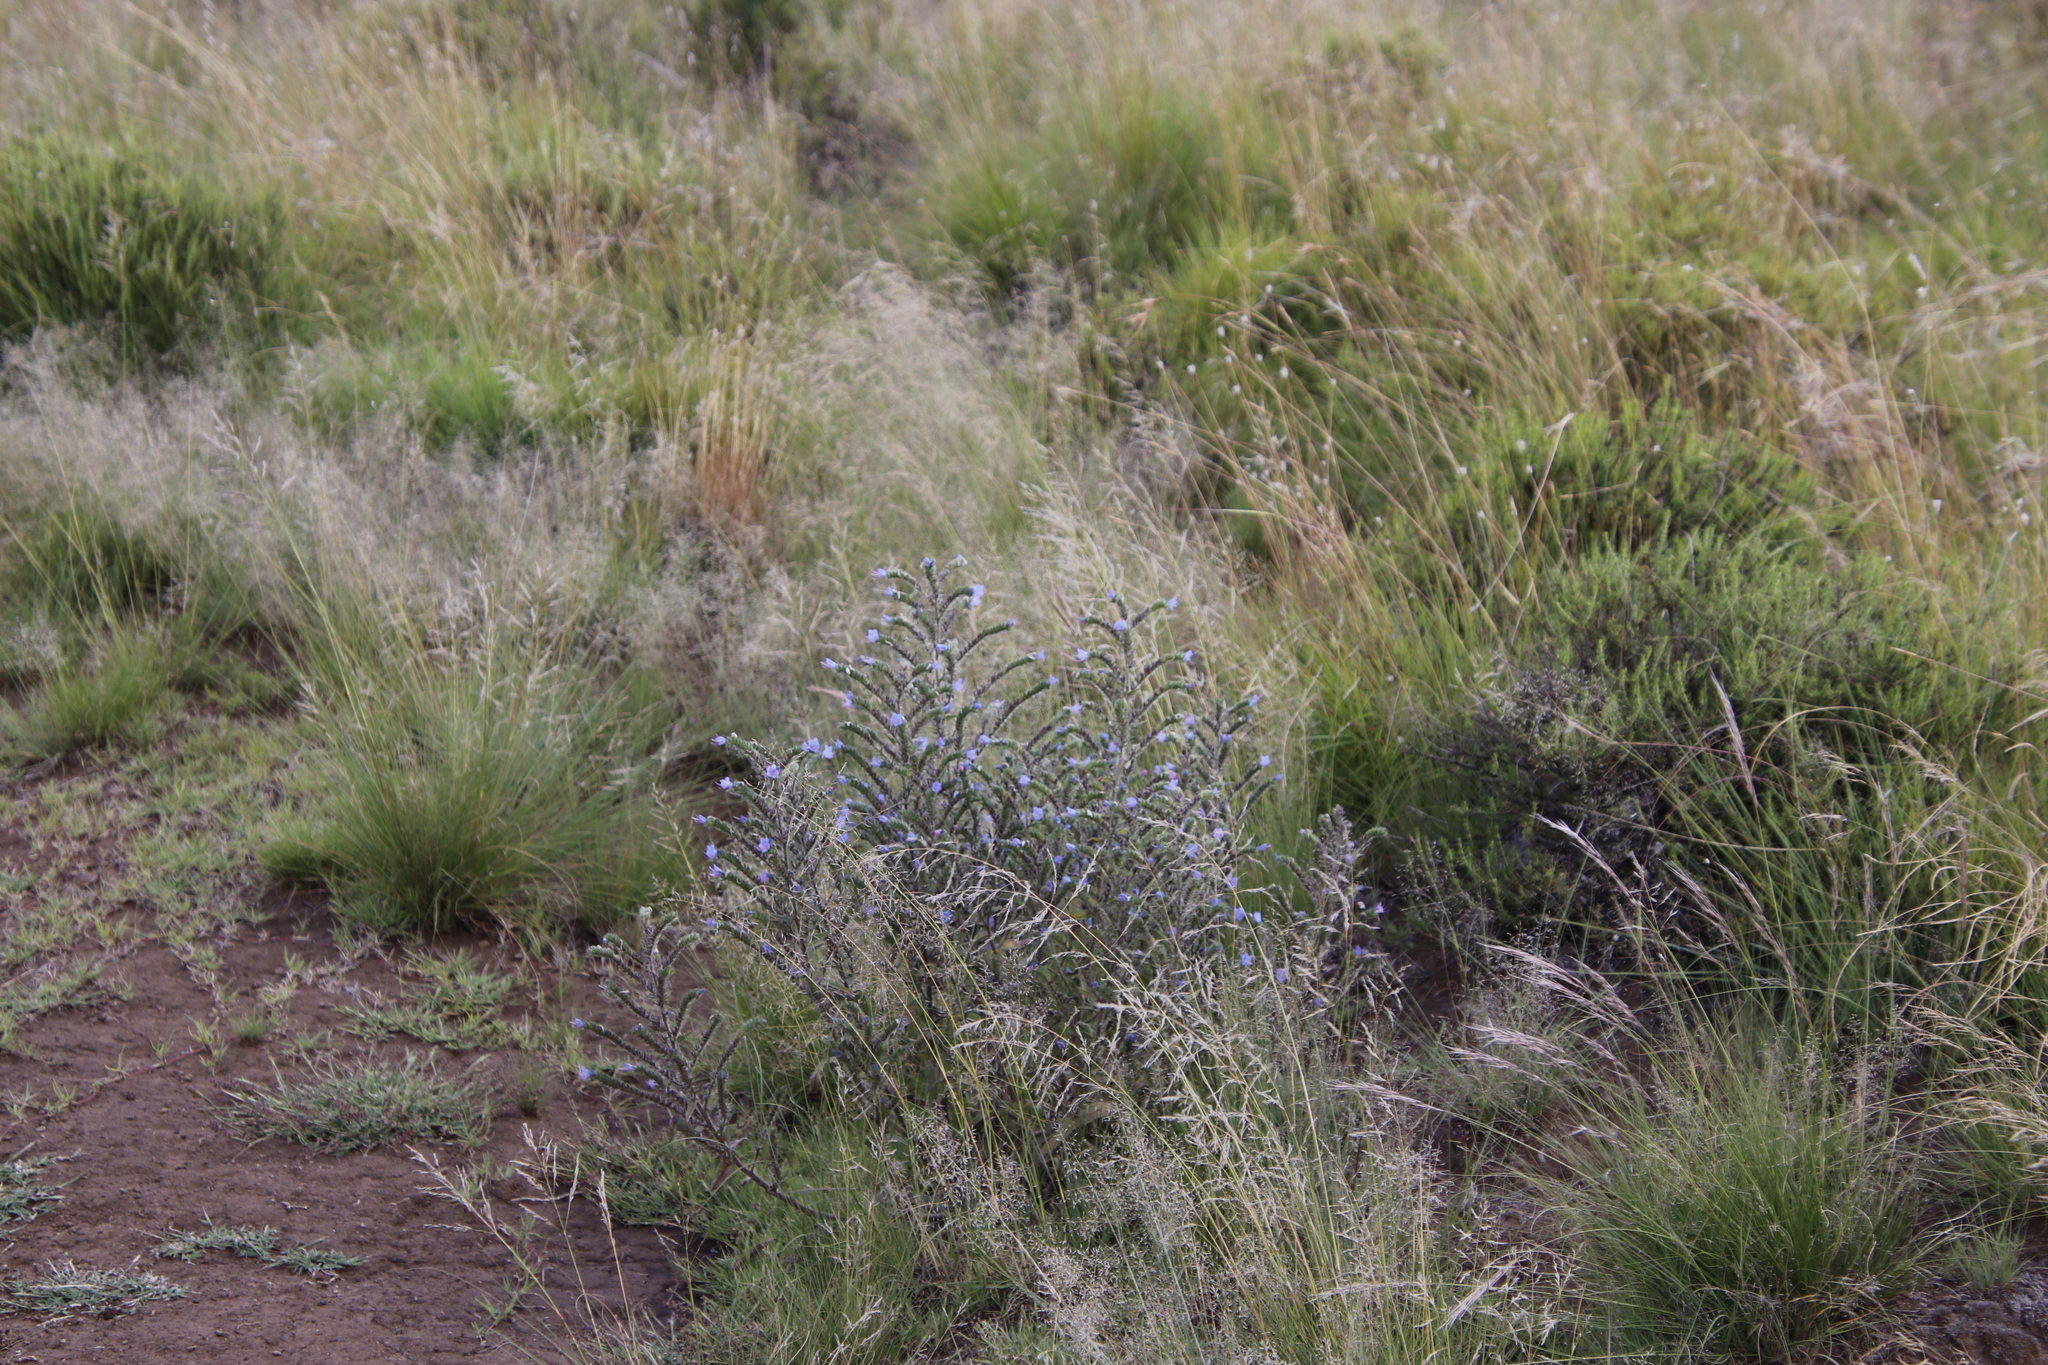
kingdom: Plantae
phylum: Tracheophyta
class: Magnoliopsida
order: Boraginales
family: Boraginaceae
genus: Echium
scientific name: Echium vulgare
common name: Common viper's bugloss
